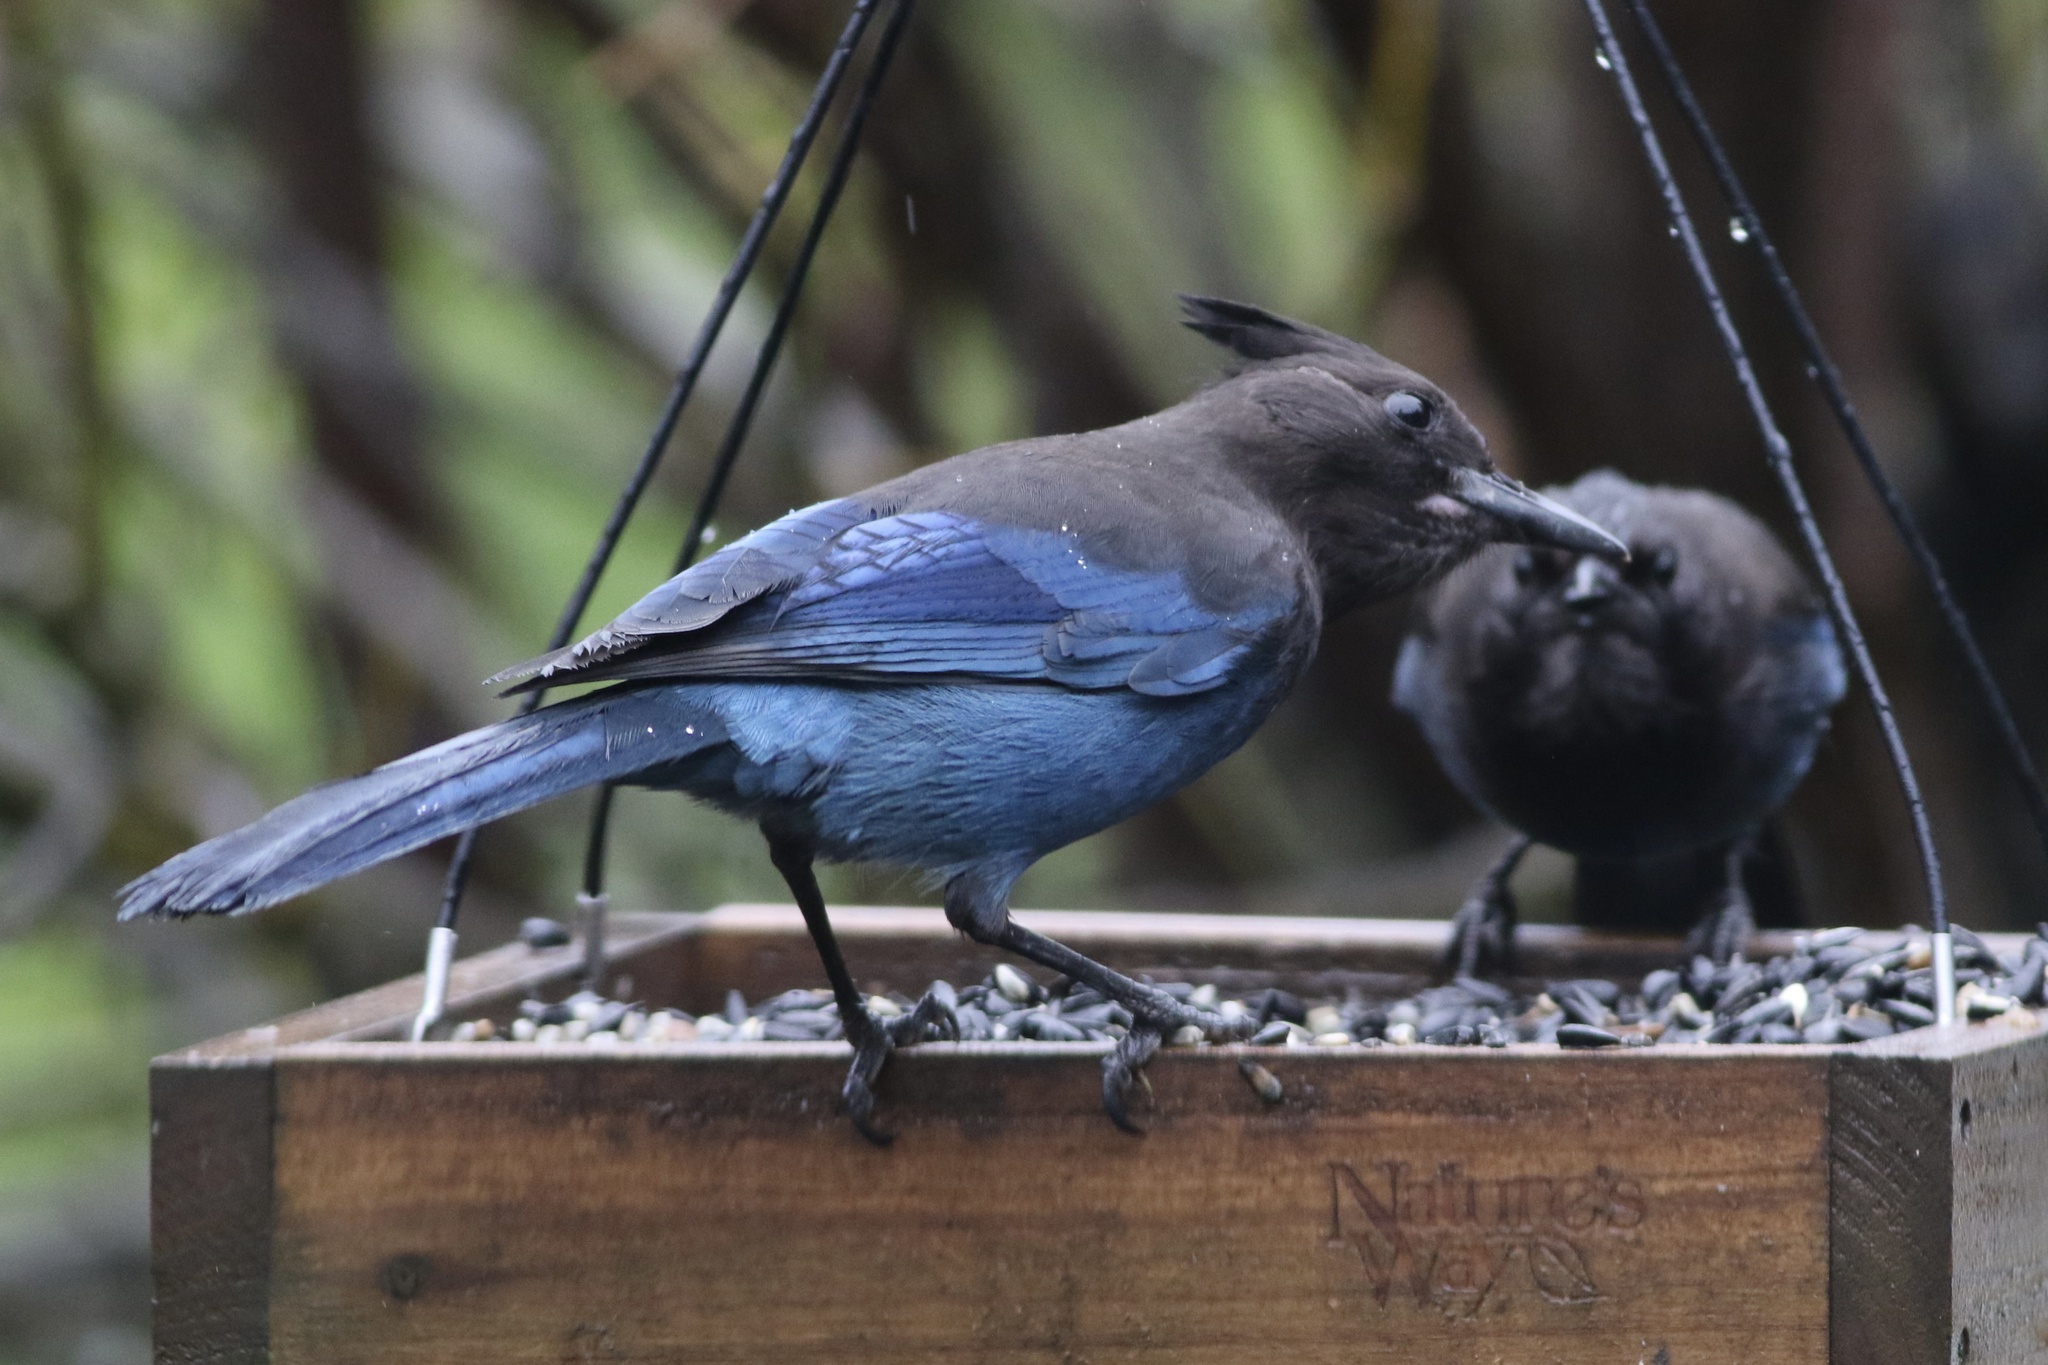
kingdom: Animalia
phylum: Chordata
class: Aves
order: Passeriformes
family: Corvidae
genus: Cyanocitta
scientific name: Cyanocitta stelleri
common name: Steller's jay
